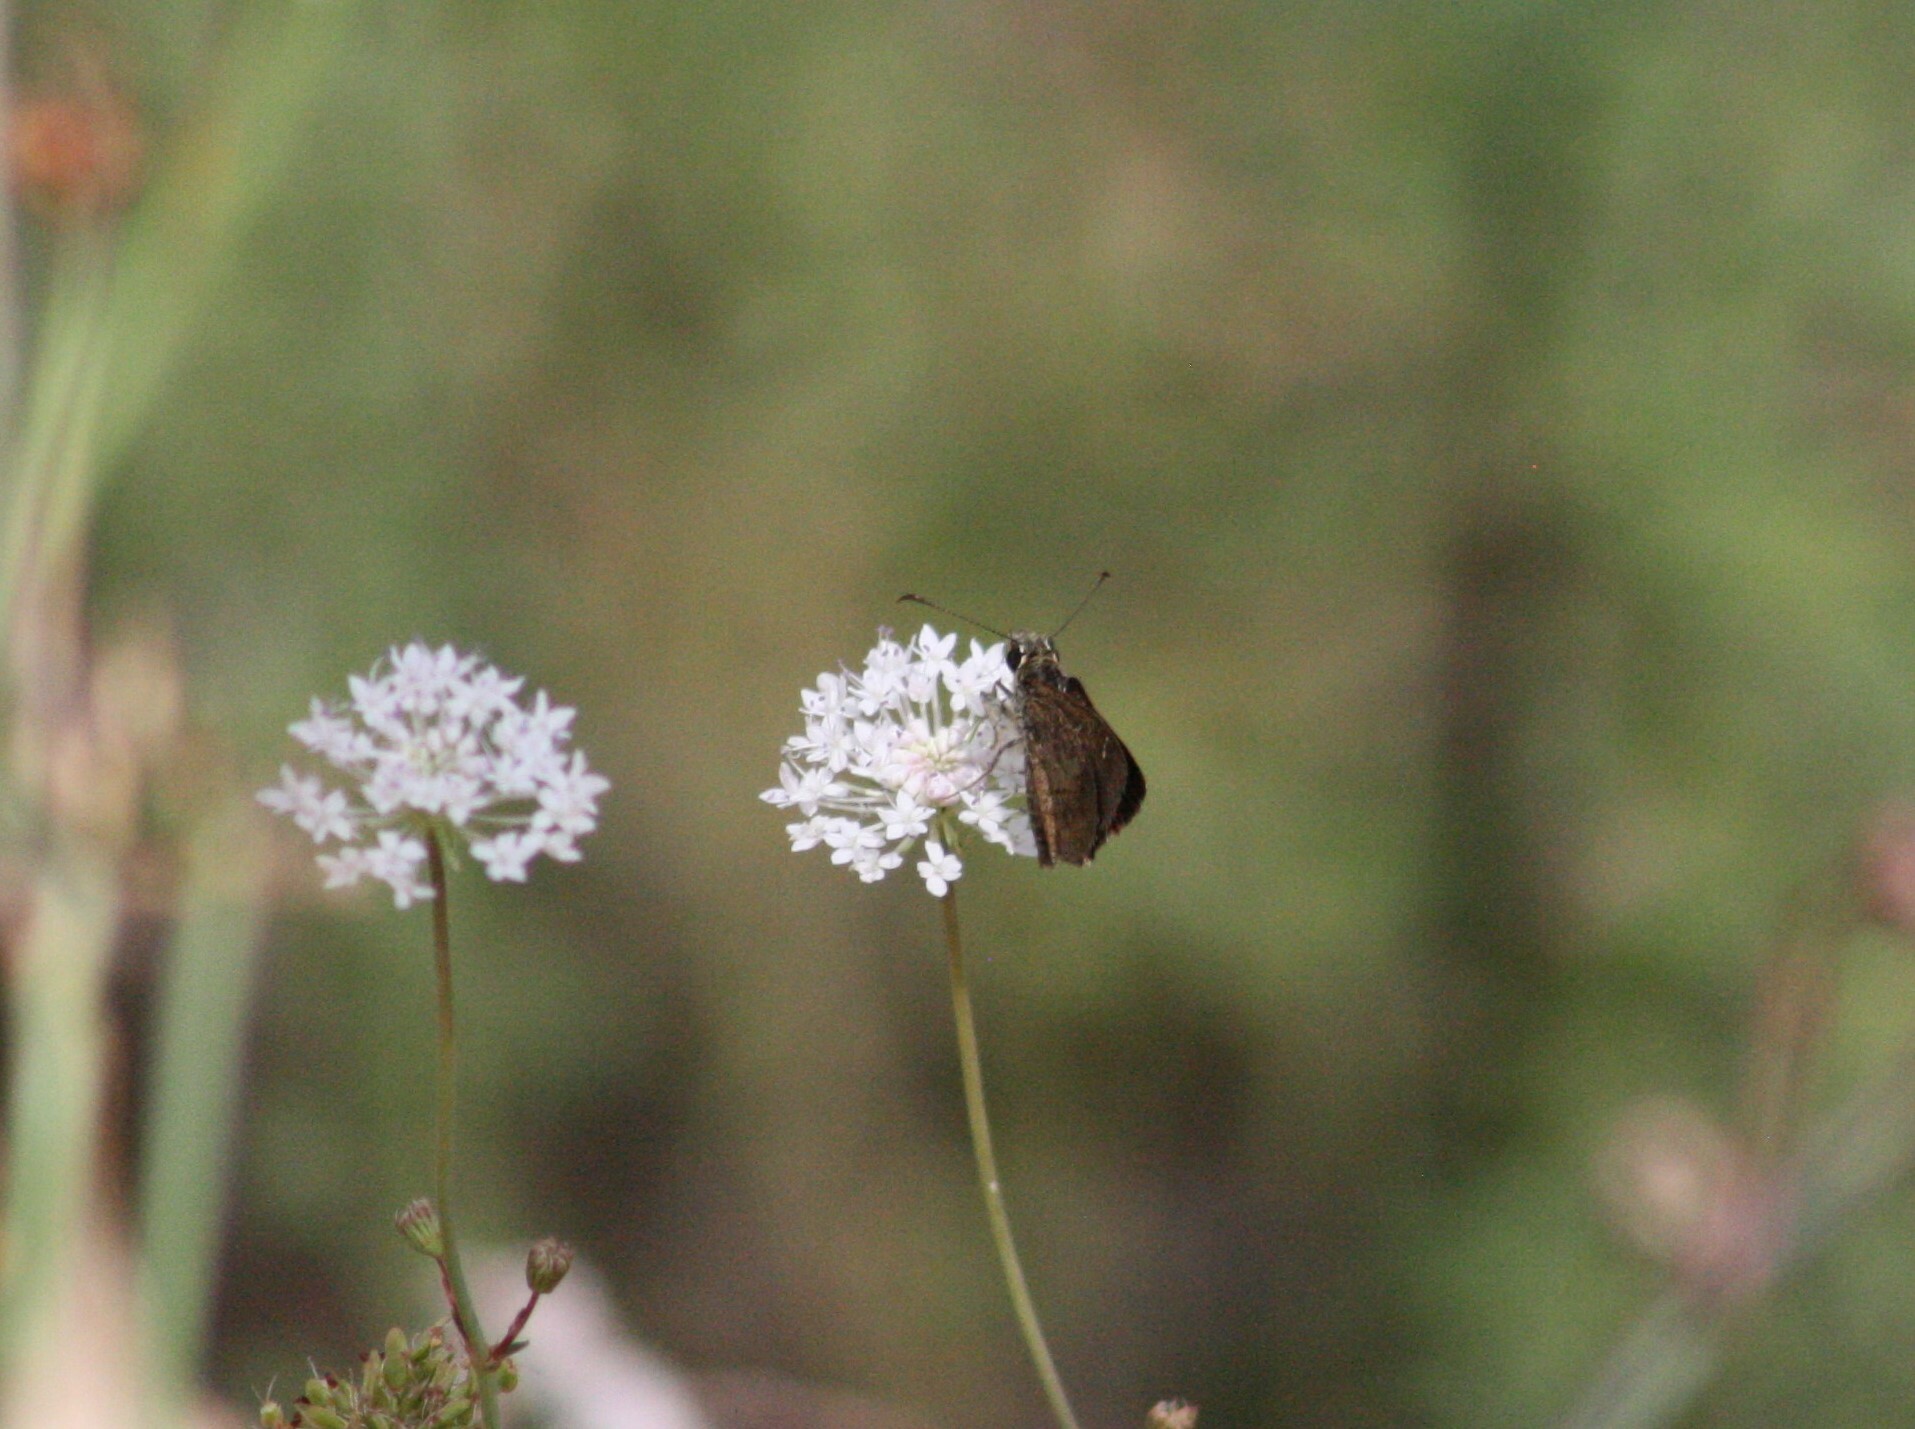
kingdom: Animalia
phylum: Arthropoda
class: Insecta
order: Lepidoptera
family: Hesperiidae
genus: Toxidia
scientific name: Toxidia parvulus
